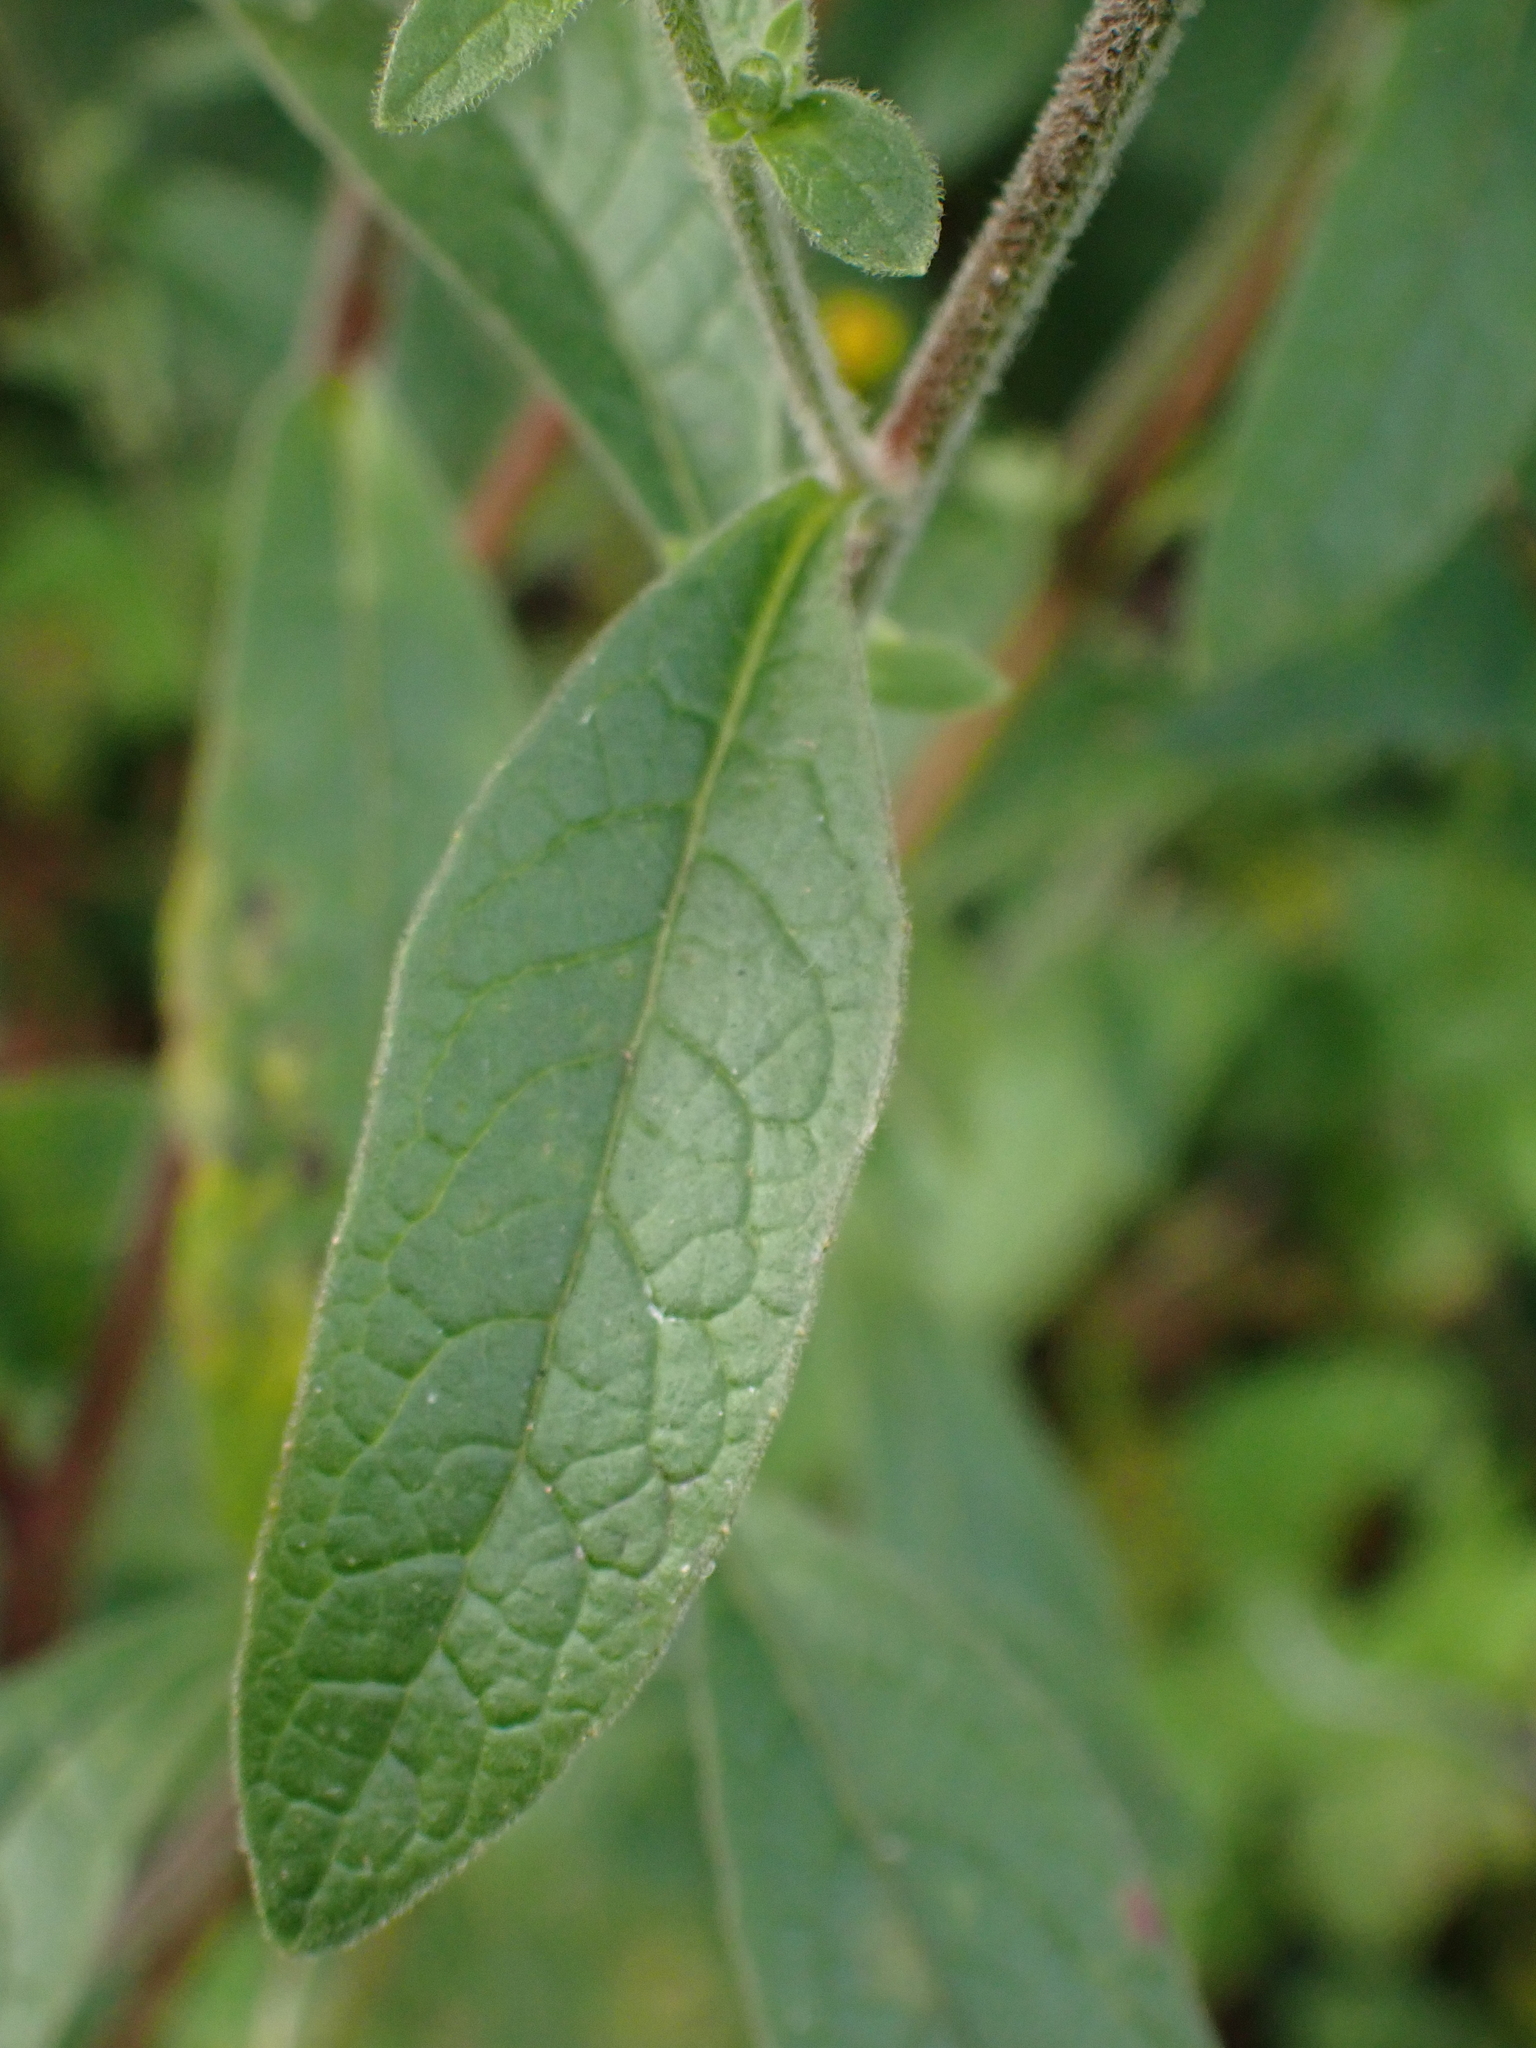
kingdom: Plantae
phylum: Tracheophyta
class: Magnoliopsida
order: Asterales
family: Asteraceae
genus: Pentanema
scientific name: Pentanema squarrosum
